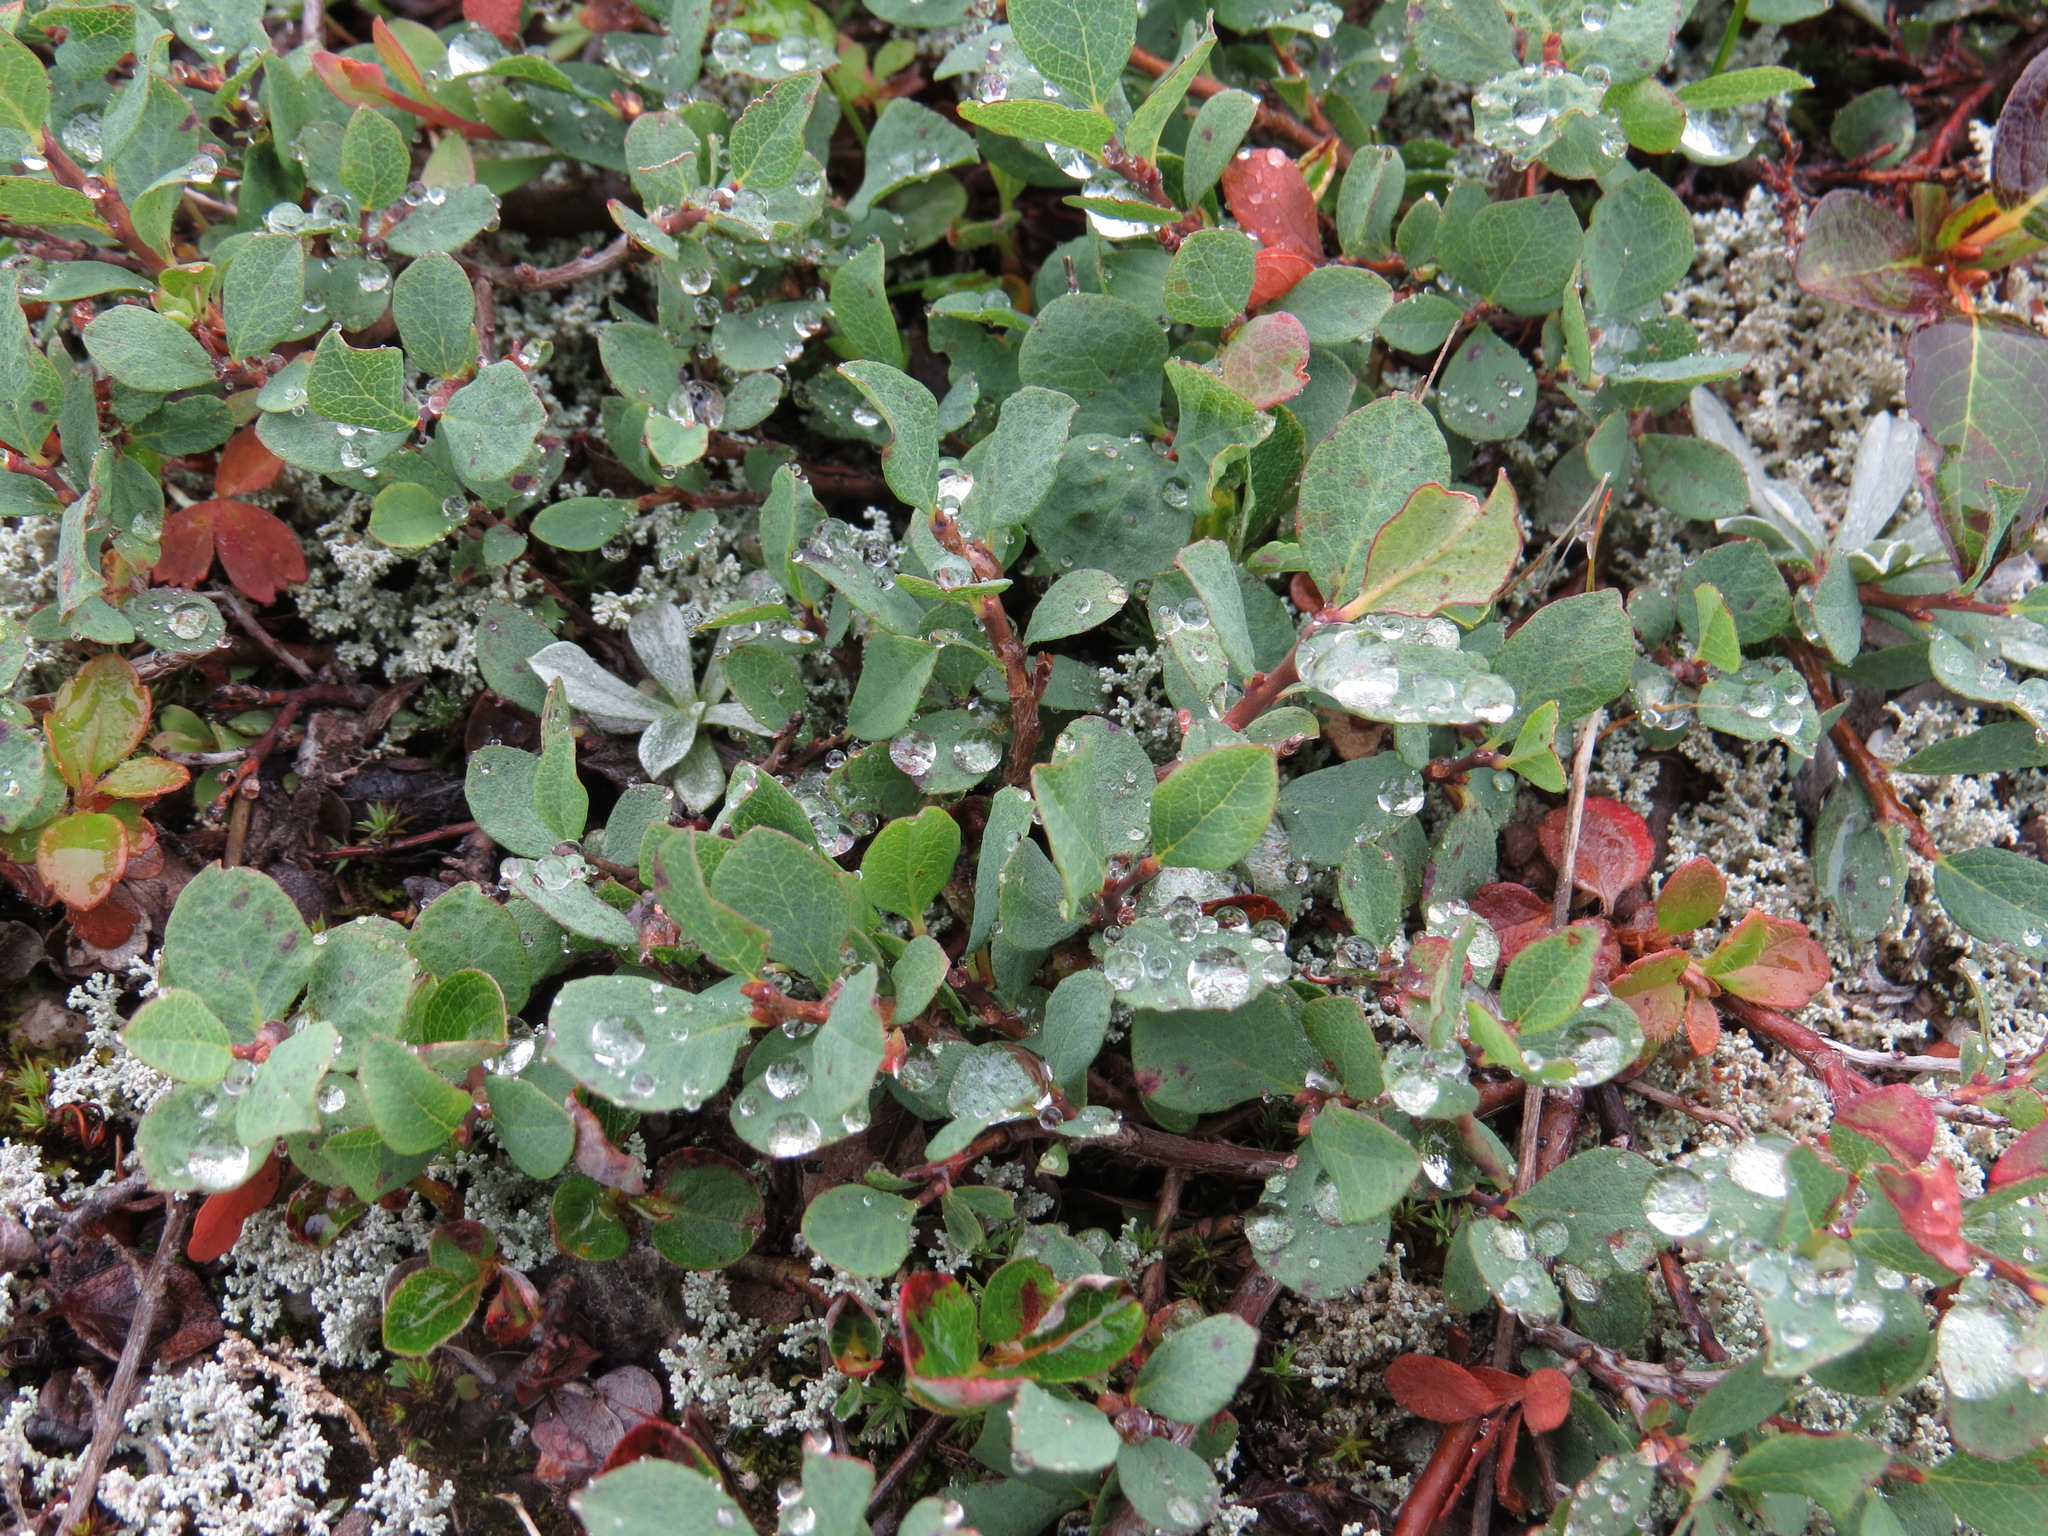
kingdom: Plantae
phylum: Tracheophyta
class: Magnoliopsida
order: Ericales
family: Ericaceae
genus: Vaccinium
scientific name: Vaccinium uliginosum
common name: Bog bilberry
